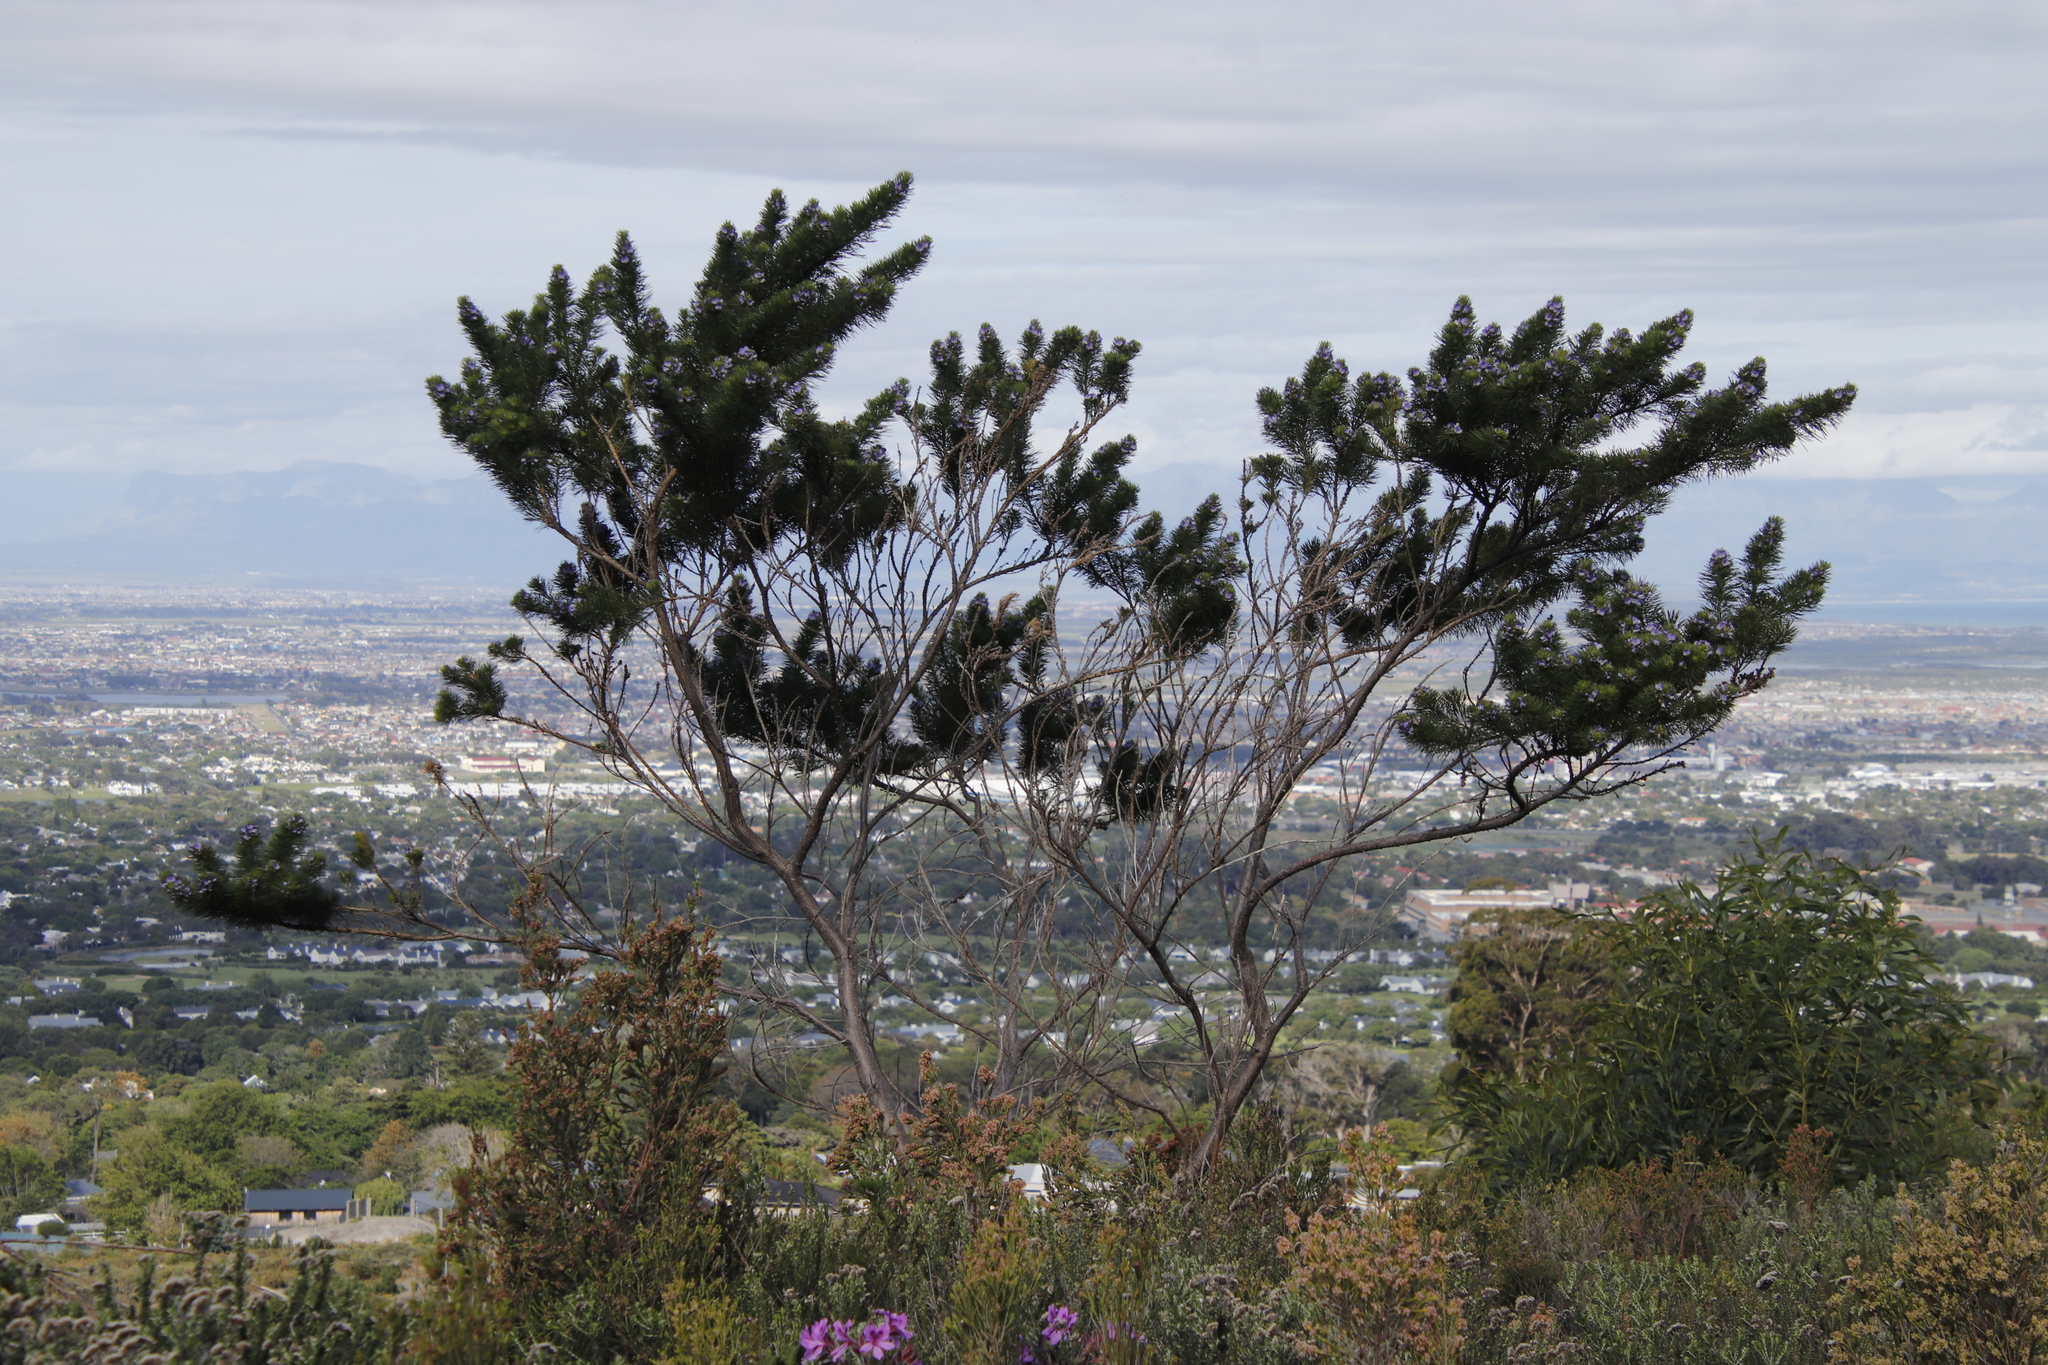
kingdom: Plantae
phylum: Tracheophyta
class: Magnoliopsida
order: Fabales
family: Fabaceae
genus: Psoralea
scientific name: Psoralea pinnata
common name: African scurfpea
